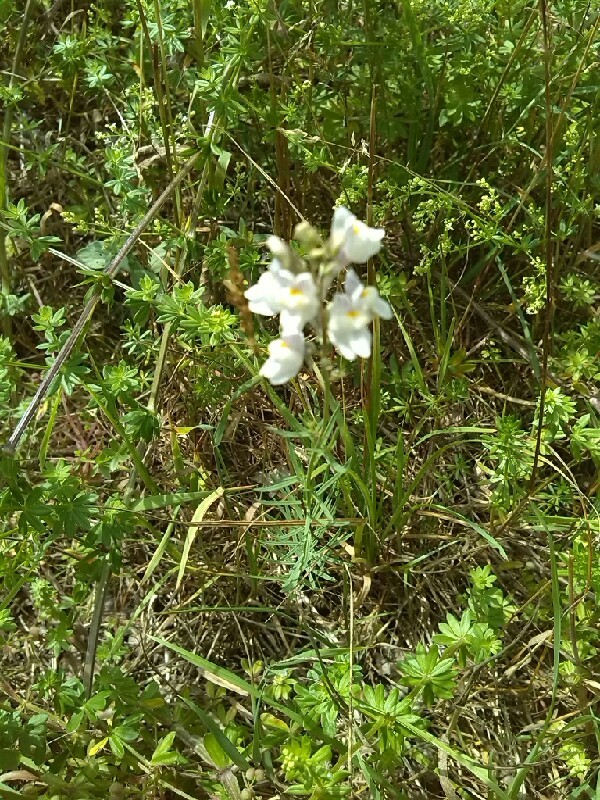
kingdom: Plantae
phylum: Tracheophyta
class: Magnoliopsida
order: Lamiales
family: Plantaginaceae
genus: Linaria
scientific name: Linaria repens
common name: Pale toadflax
